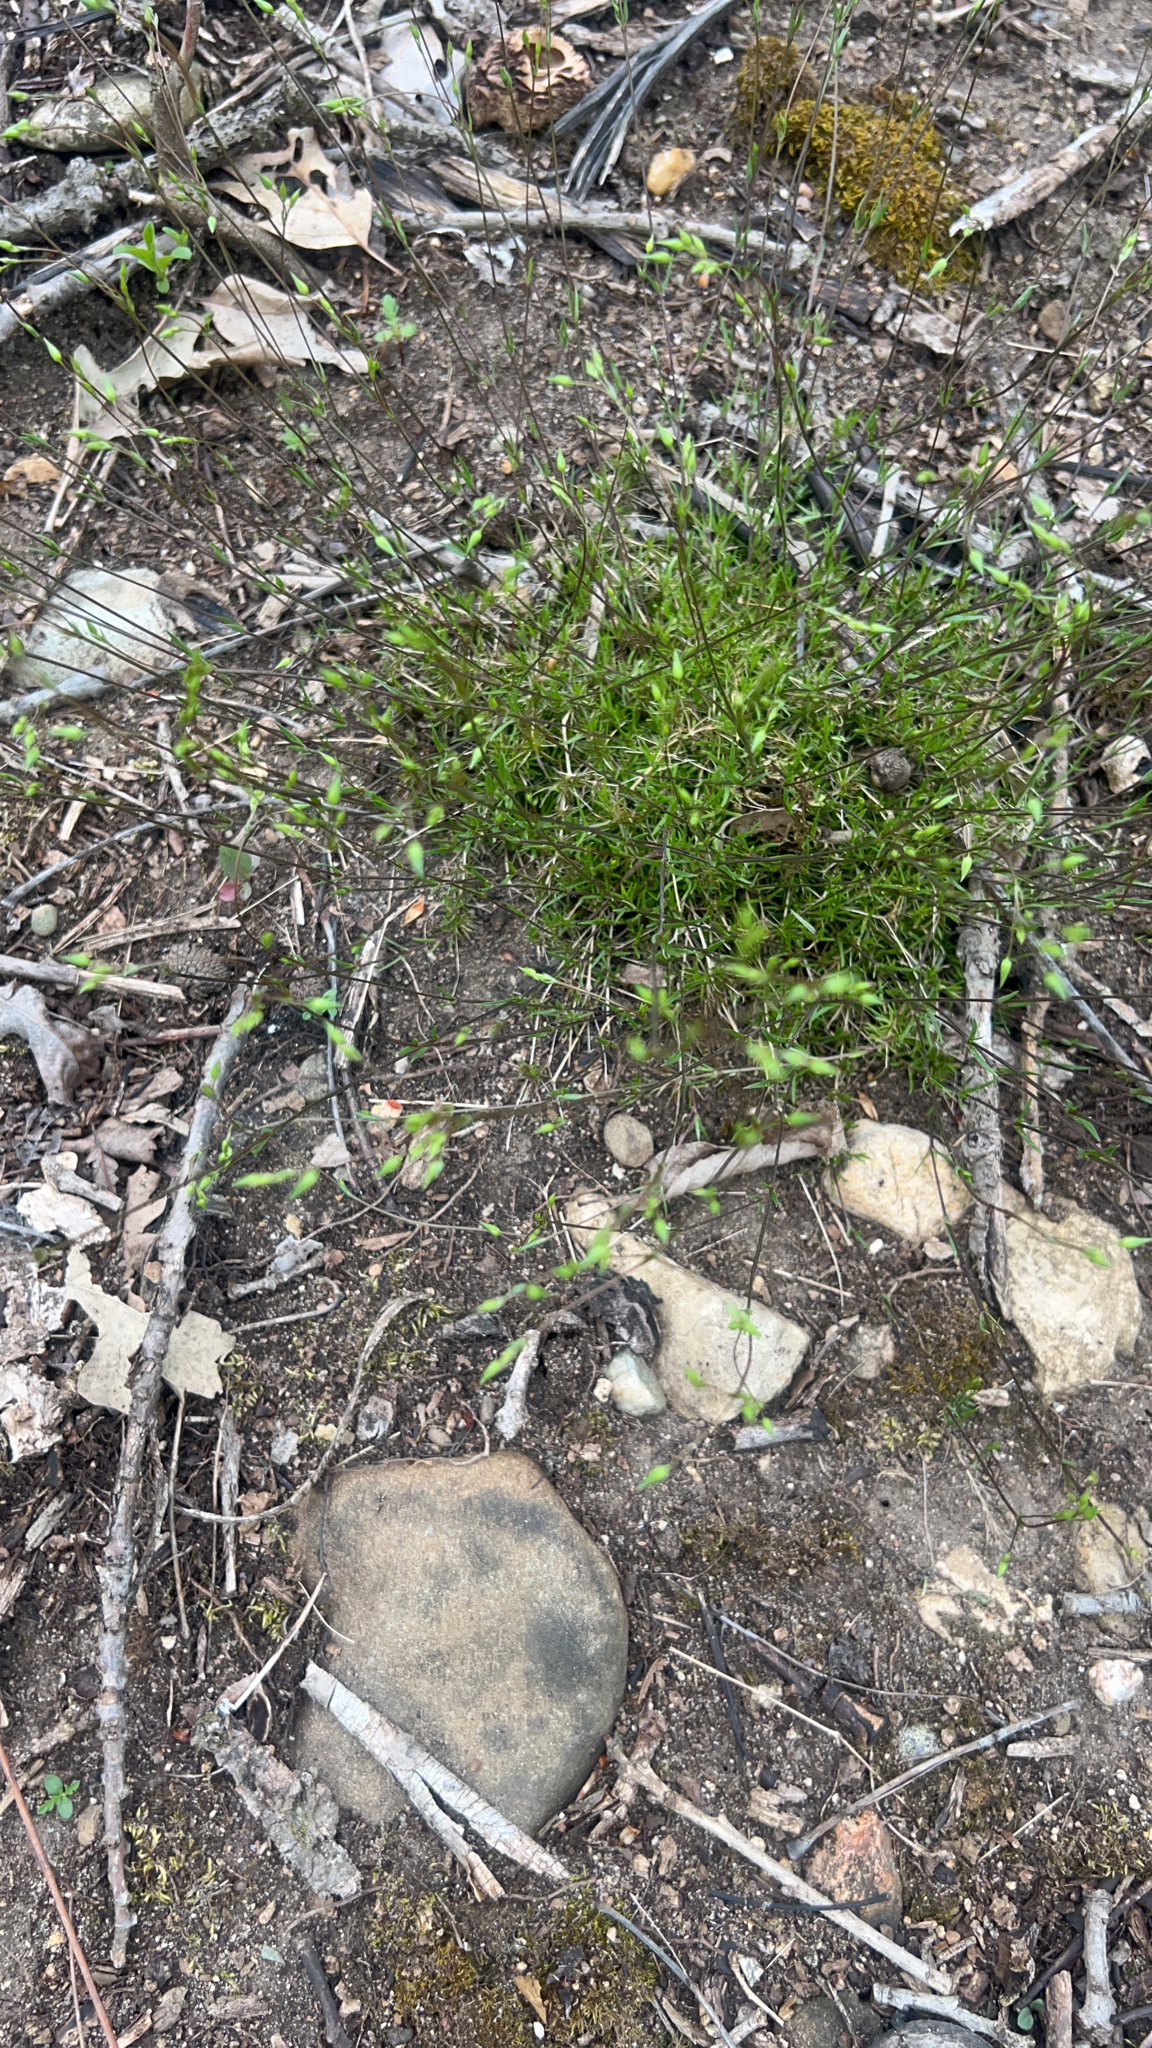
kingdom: Plantae
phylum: Tracheophyta
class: Magnoliopsida
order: Caryophyllales
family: Caryophyllaceae
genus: Sabulina
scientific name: Sabulina michauxii
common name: Michaux's stitchwort
